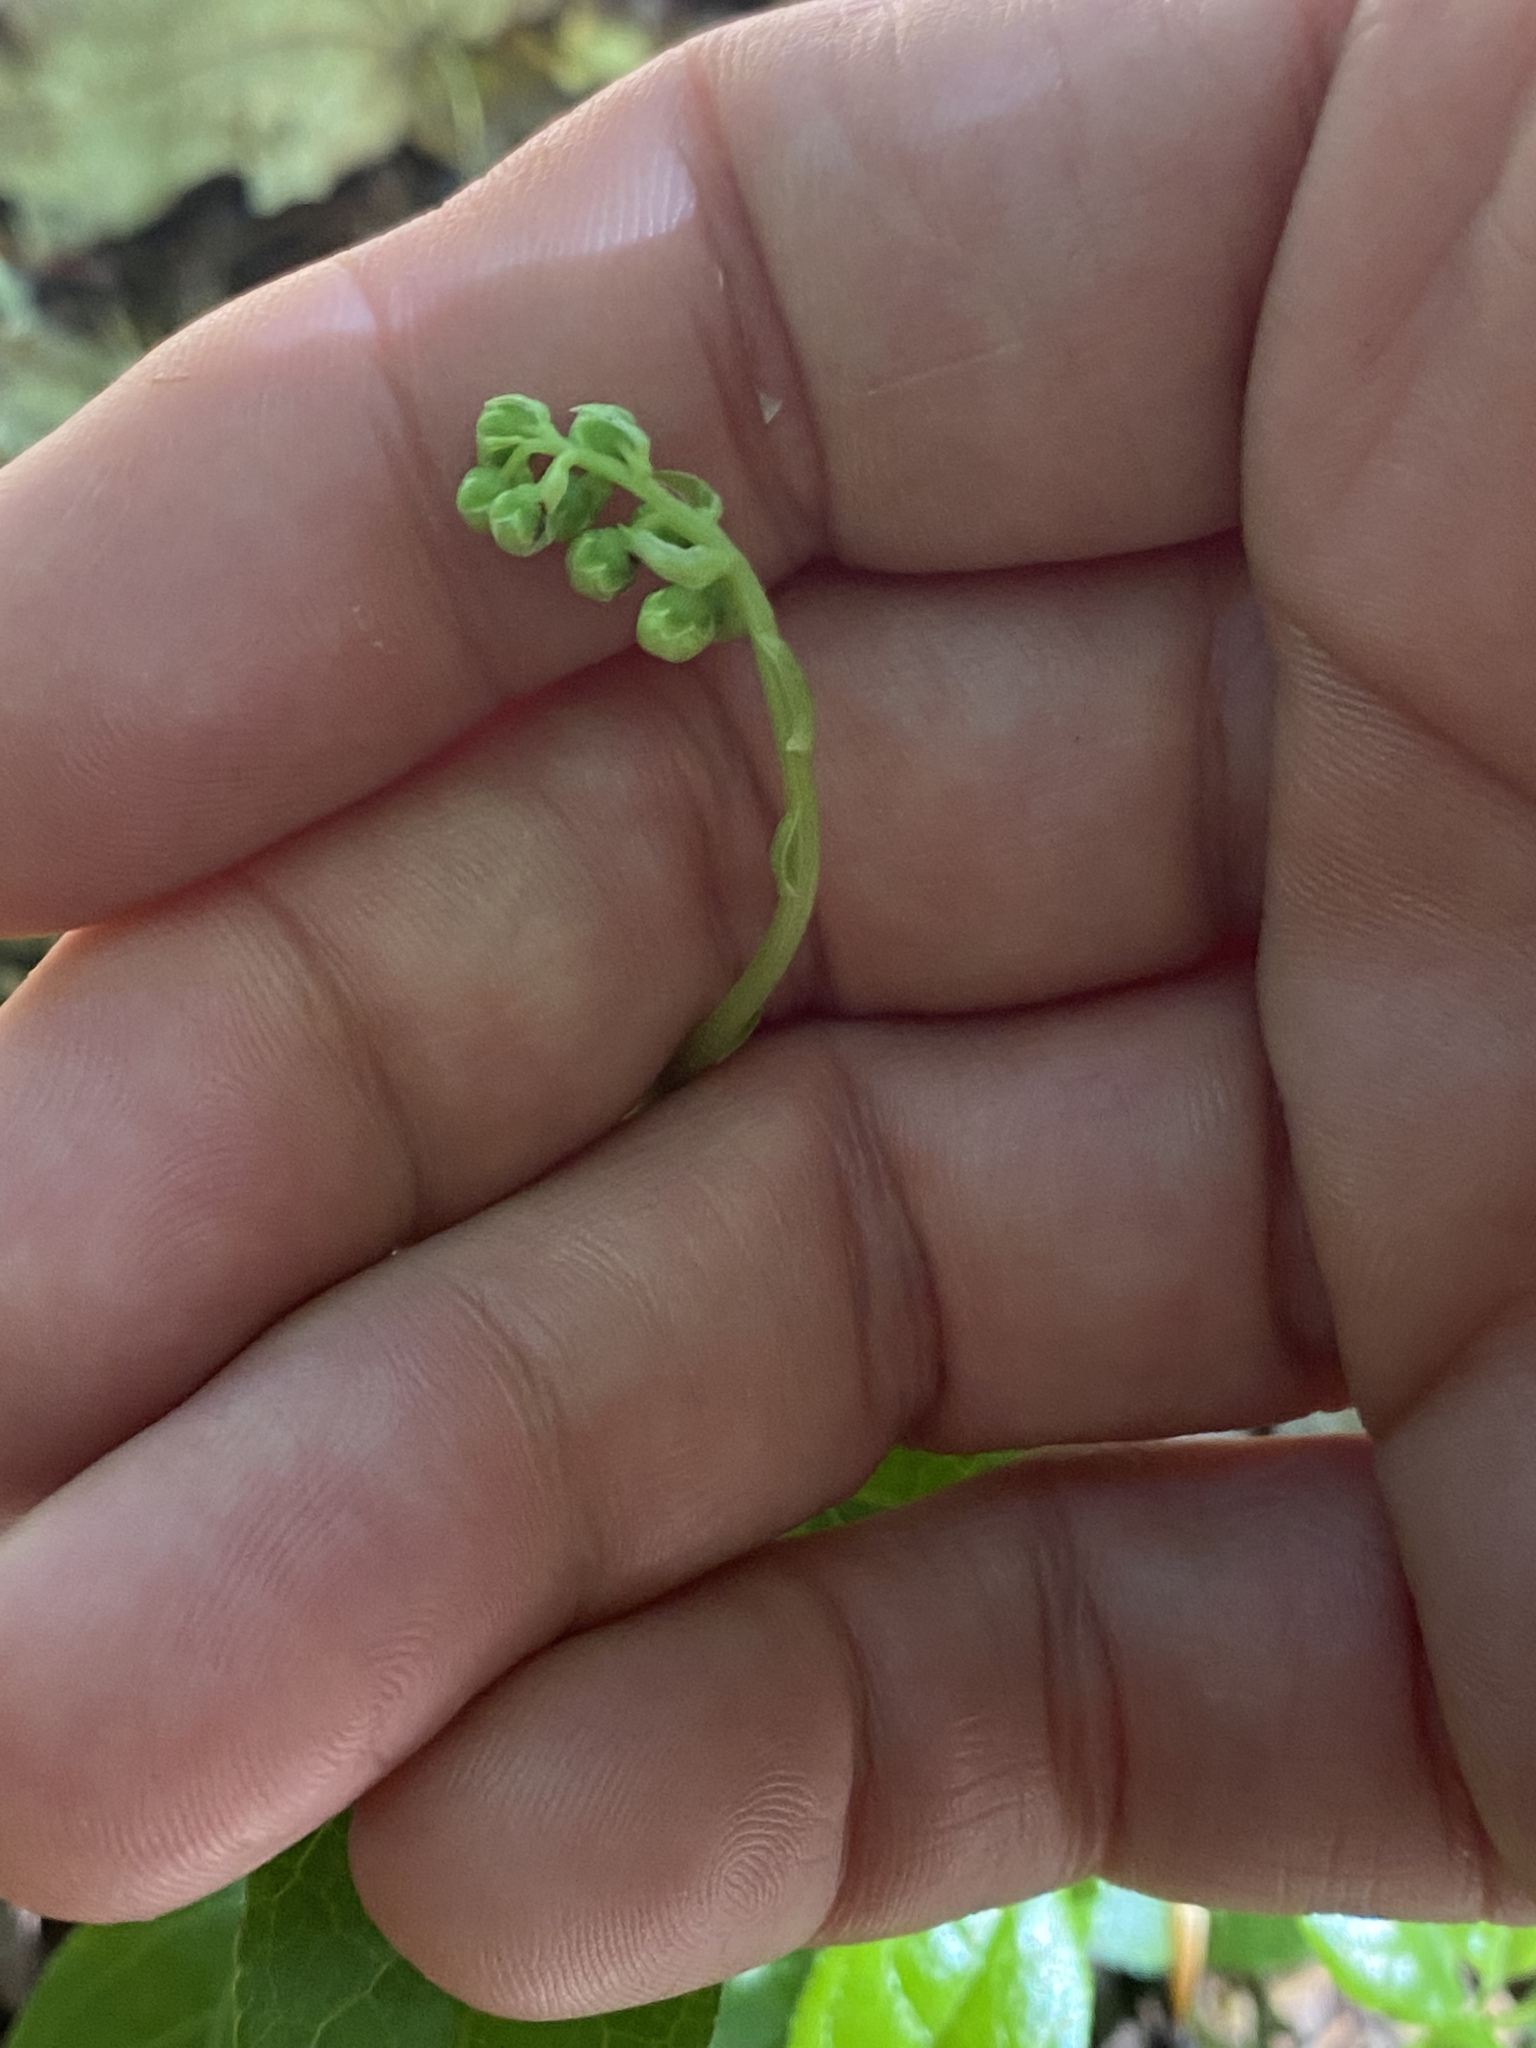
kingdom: Plantae
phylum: Tracheophyta
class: Magnoliopsida
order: Ericales
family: Ericaceae
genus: Orthilia
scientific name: Orthilia secunda
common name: One-sided orthilia
